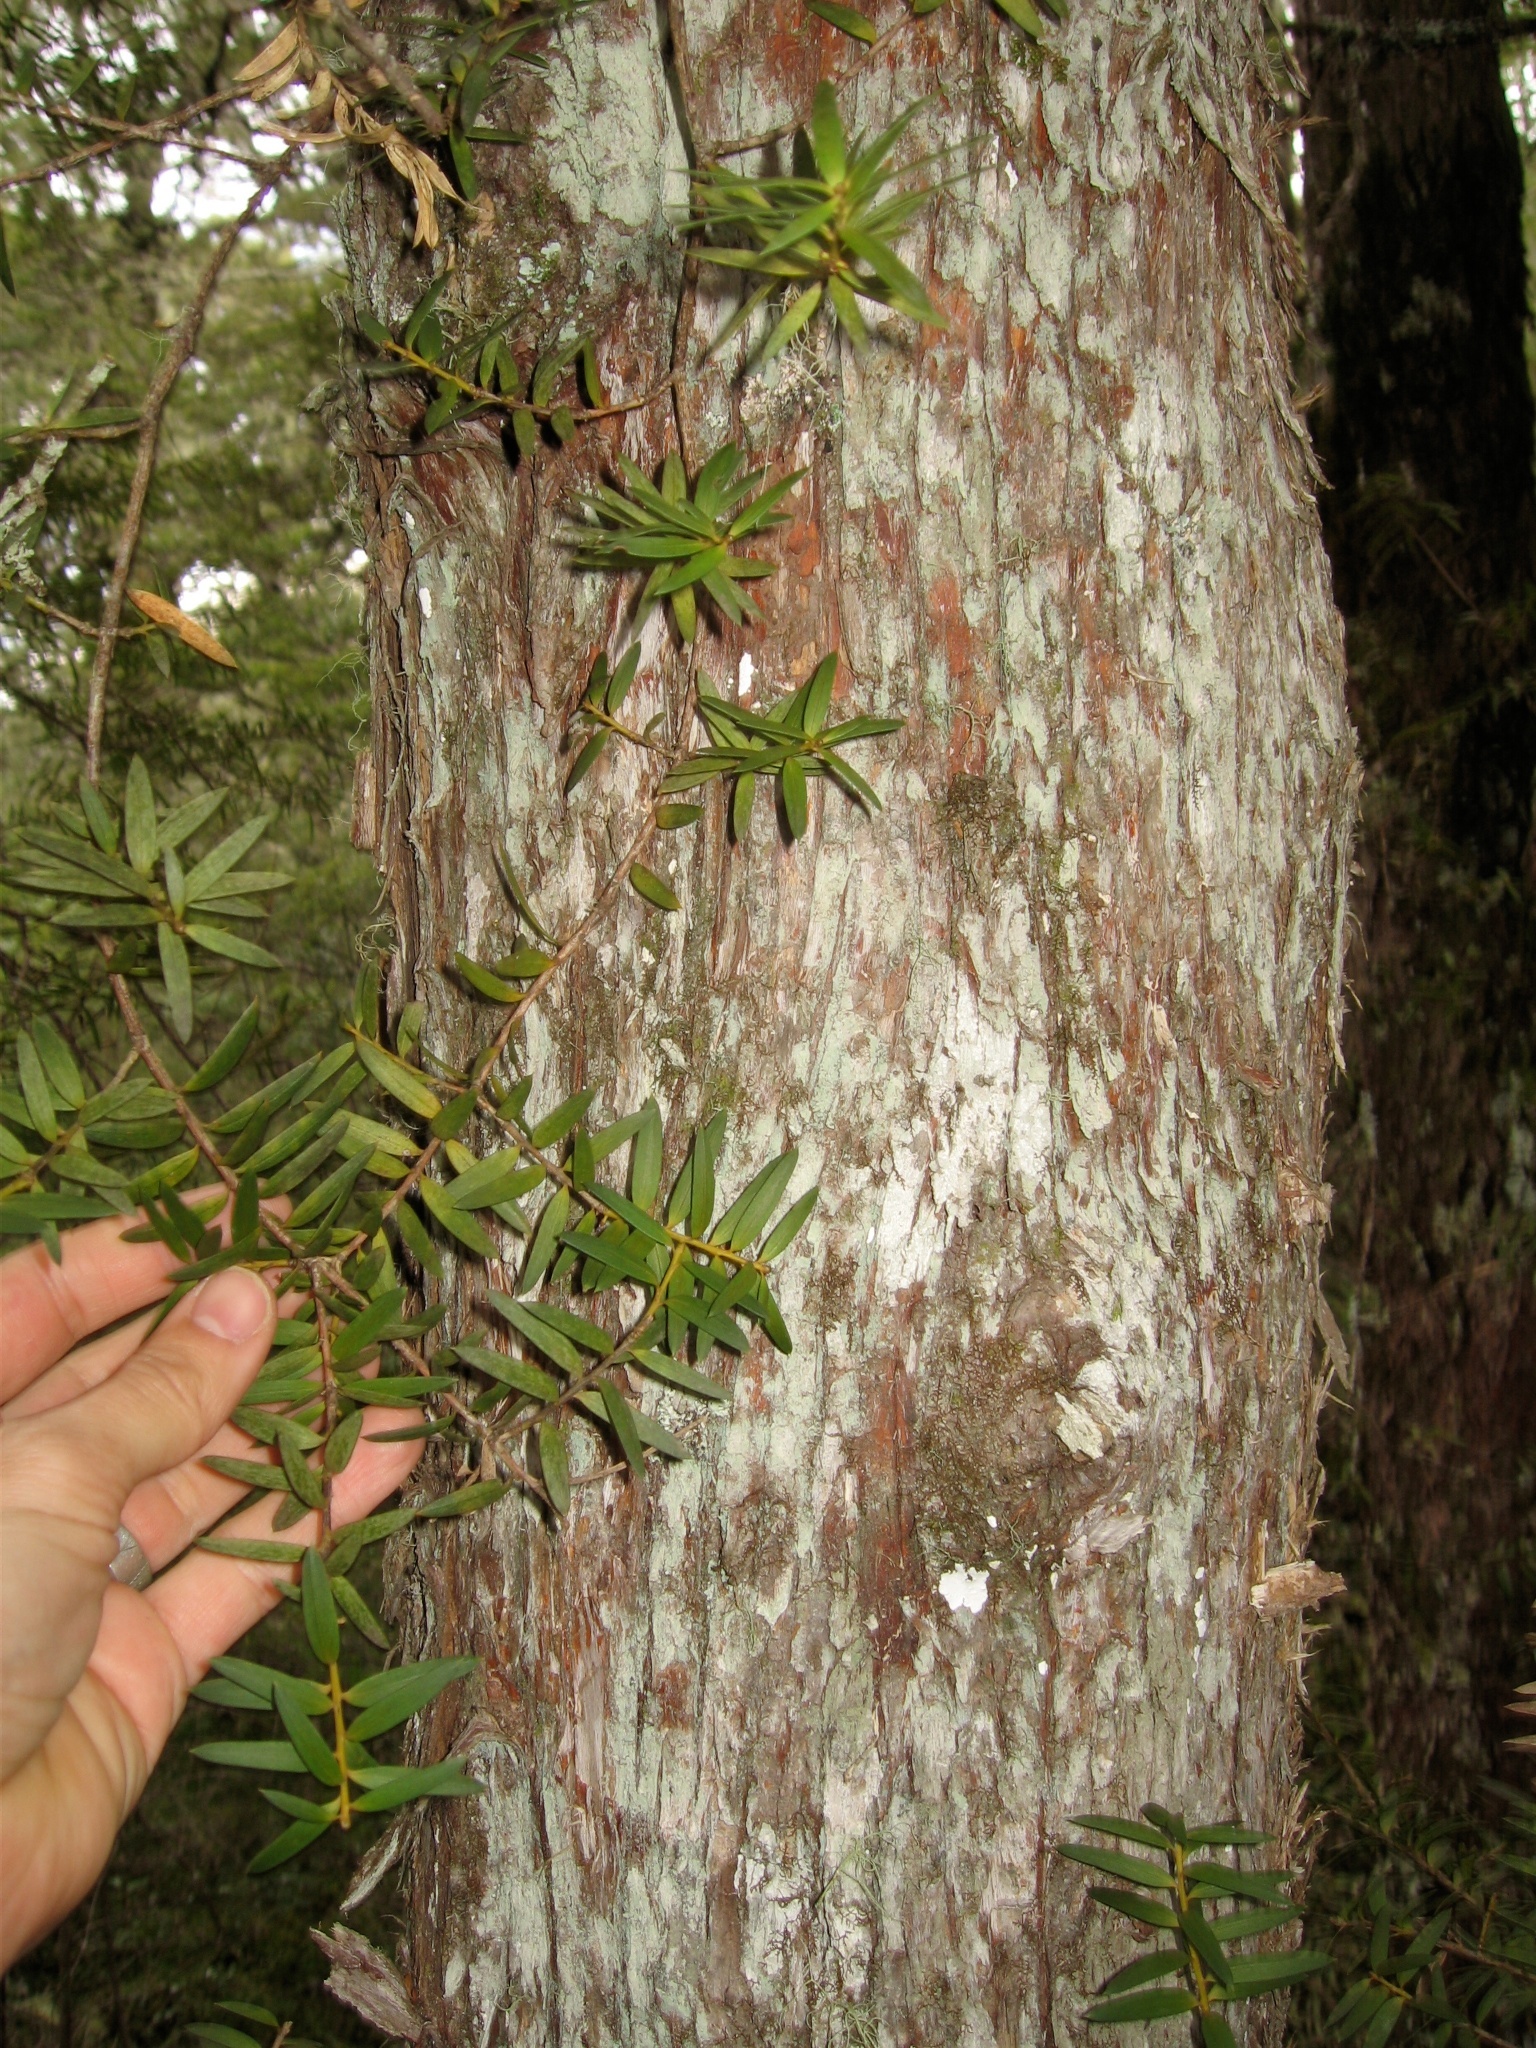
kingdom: Plantae
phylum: Tracheophyta
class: Pinopsida
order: Pinales
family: Podocarpaceae
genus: Podocarpus
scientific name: Podocarpus laetus
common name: Hall's totara
